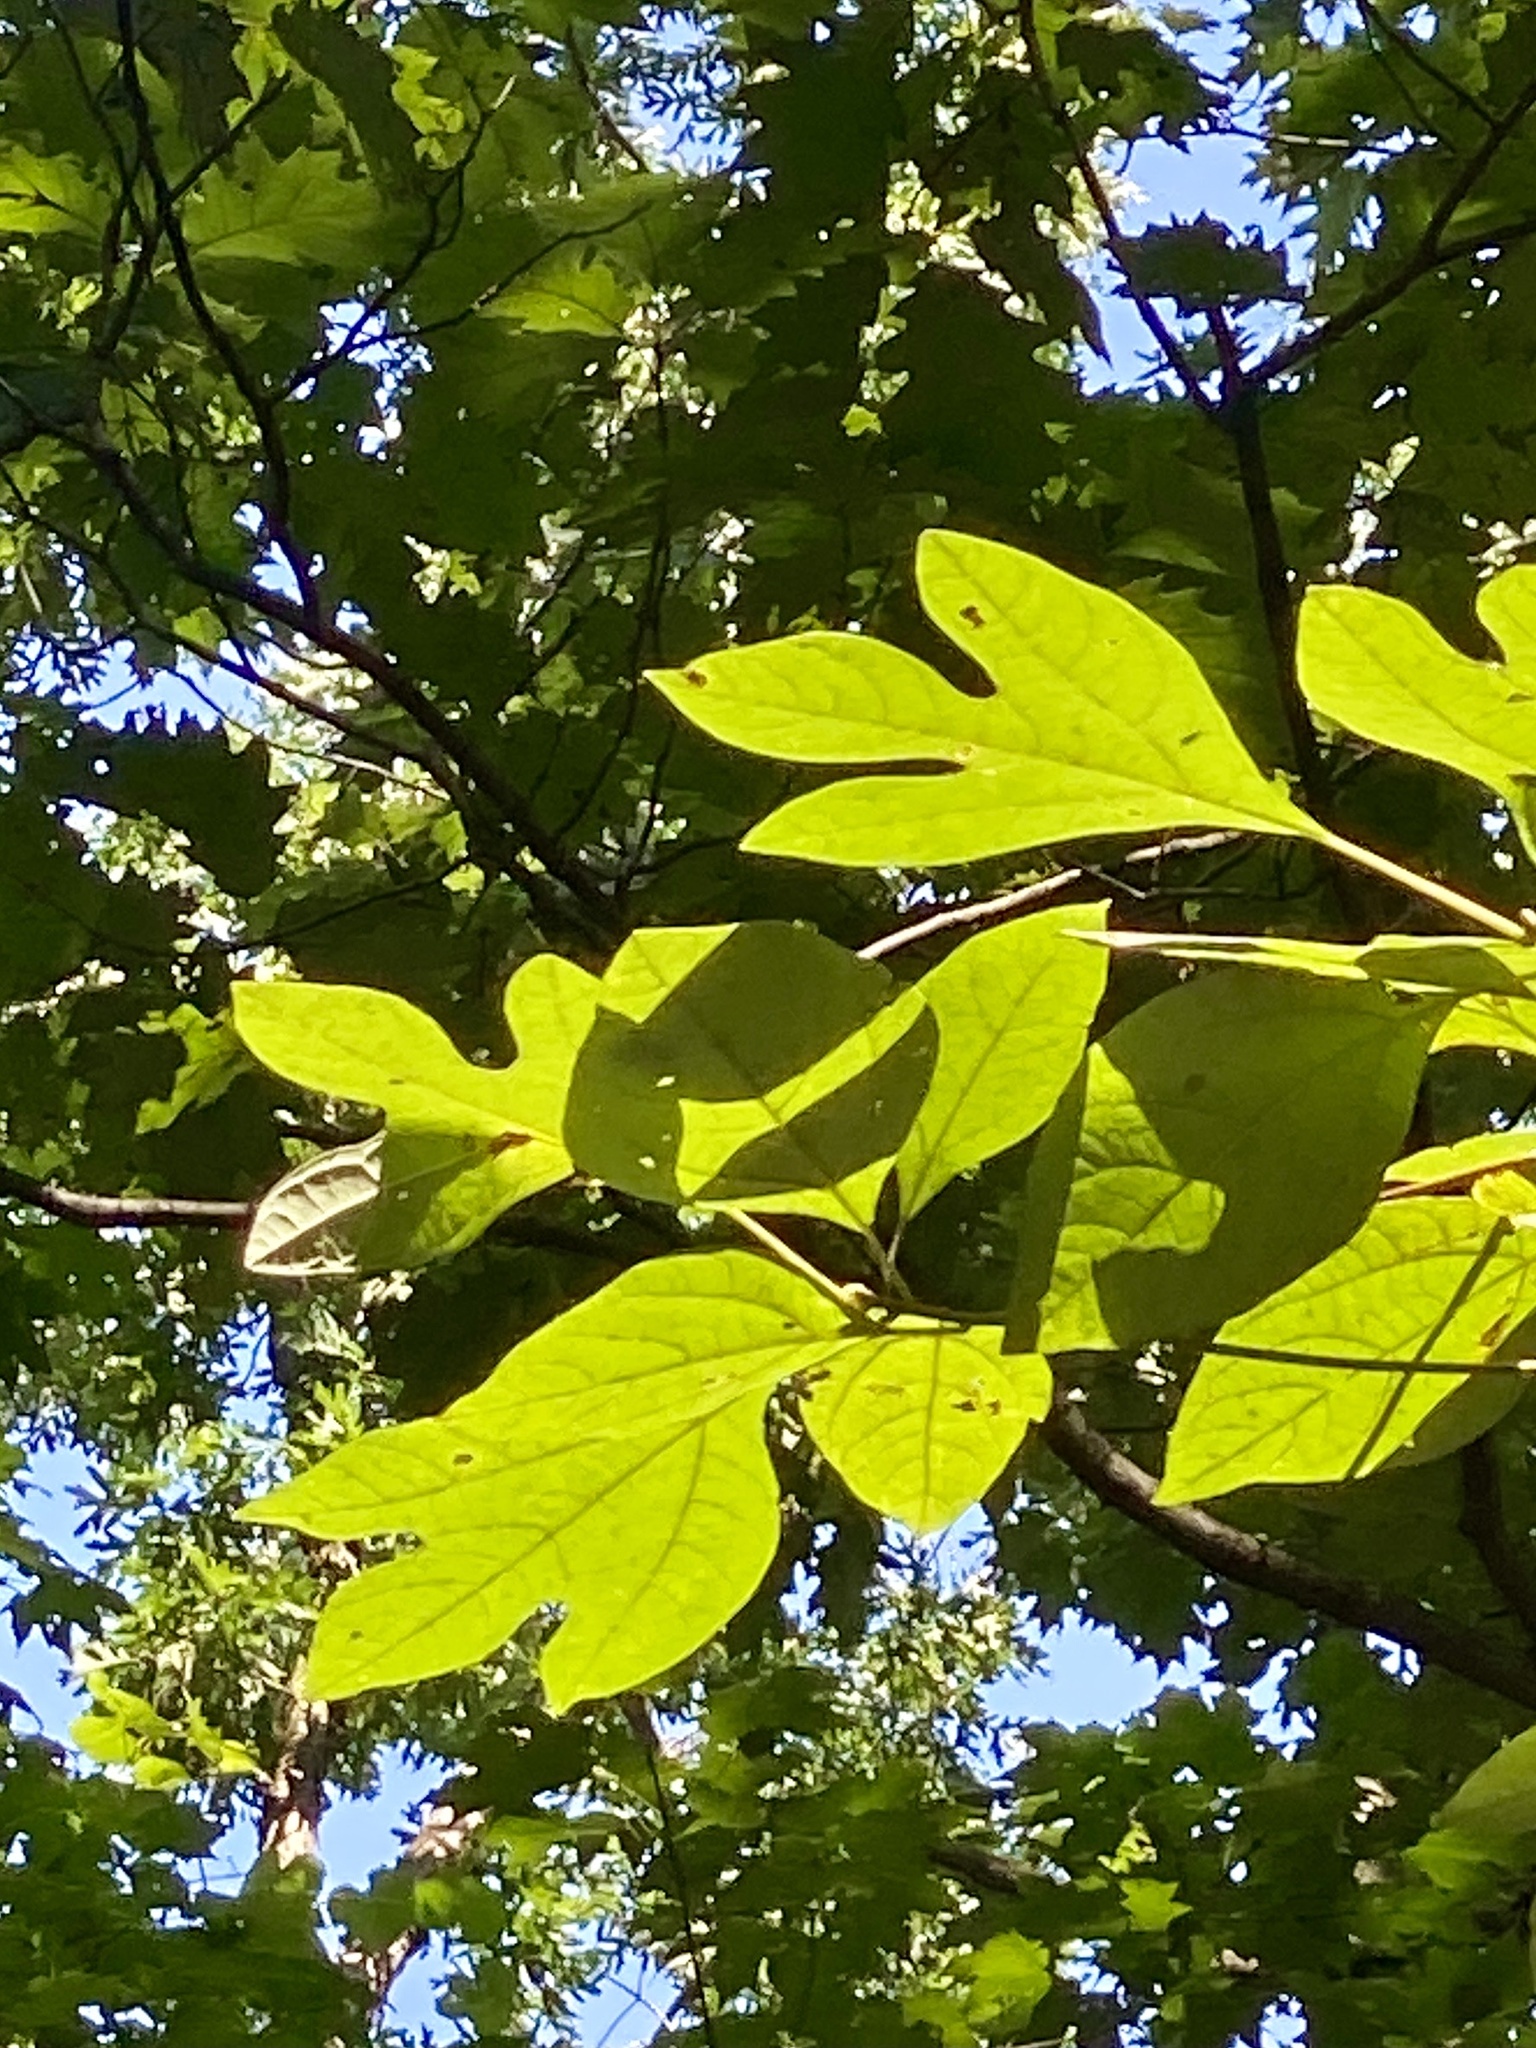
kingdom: Plantae
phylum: Tracheophyta
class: Magnoliopsida
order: Laurales
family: Lauraceae
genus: Sassafras
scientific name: Sassafras albidum
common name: Sassafras
